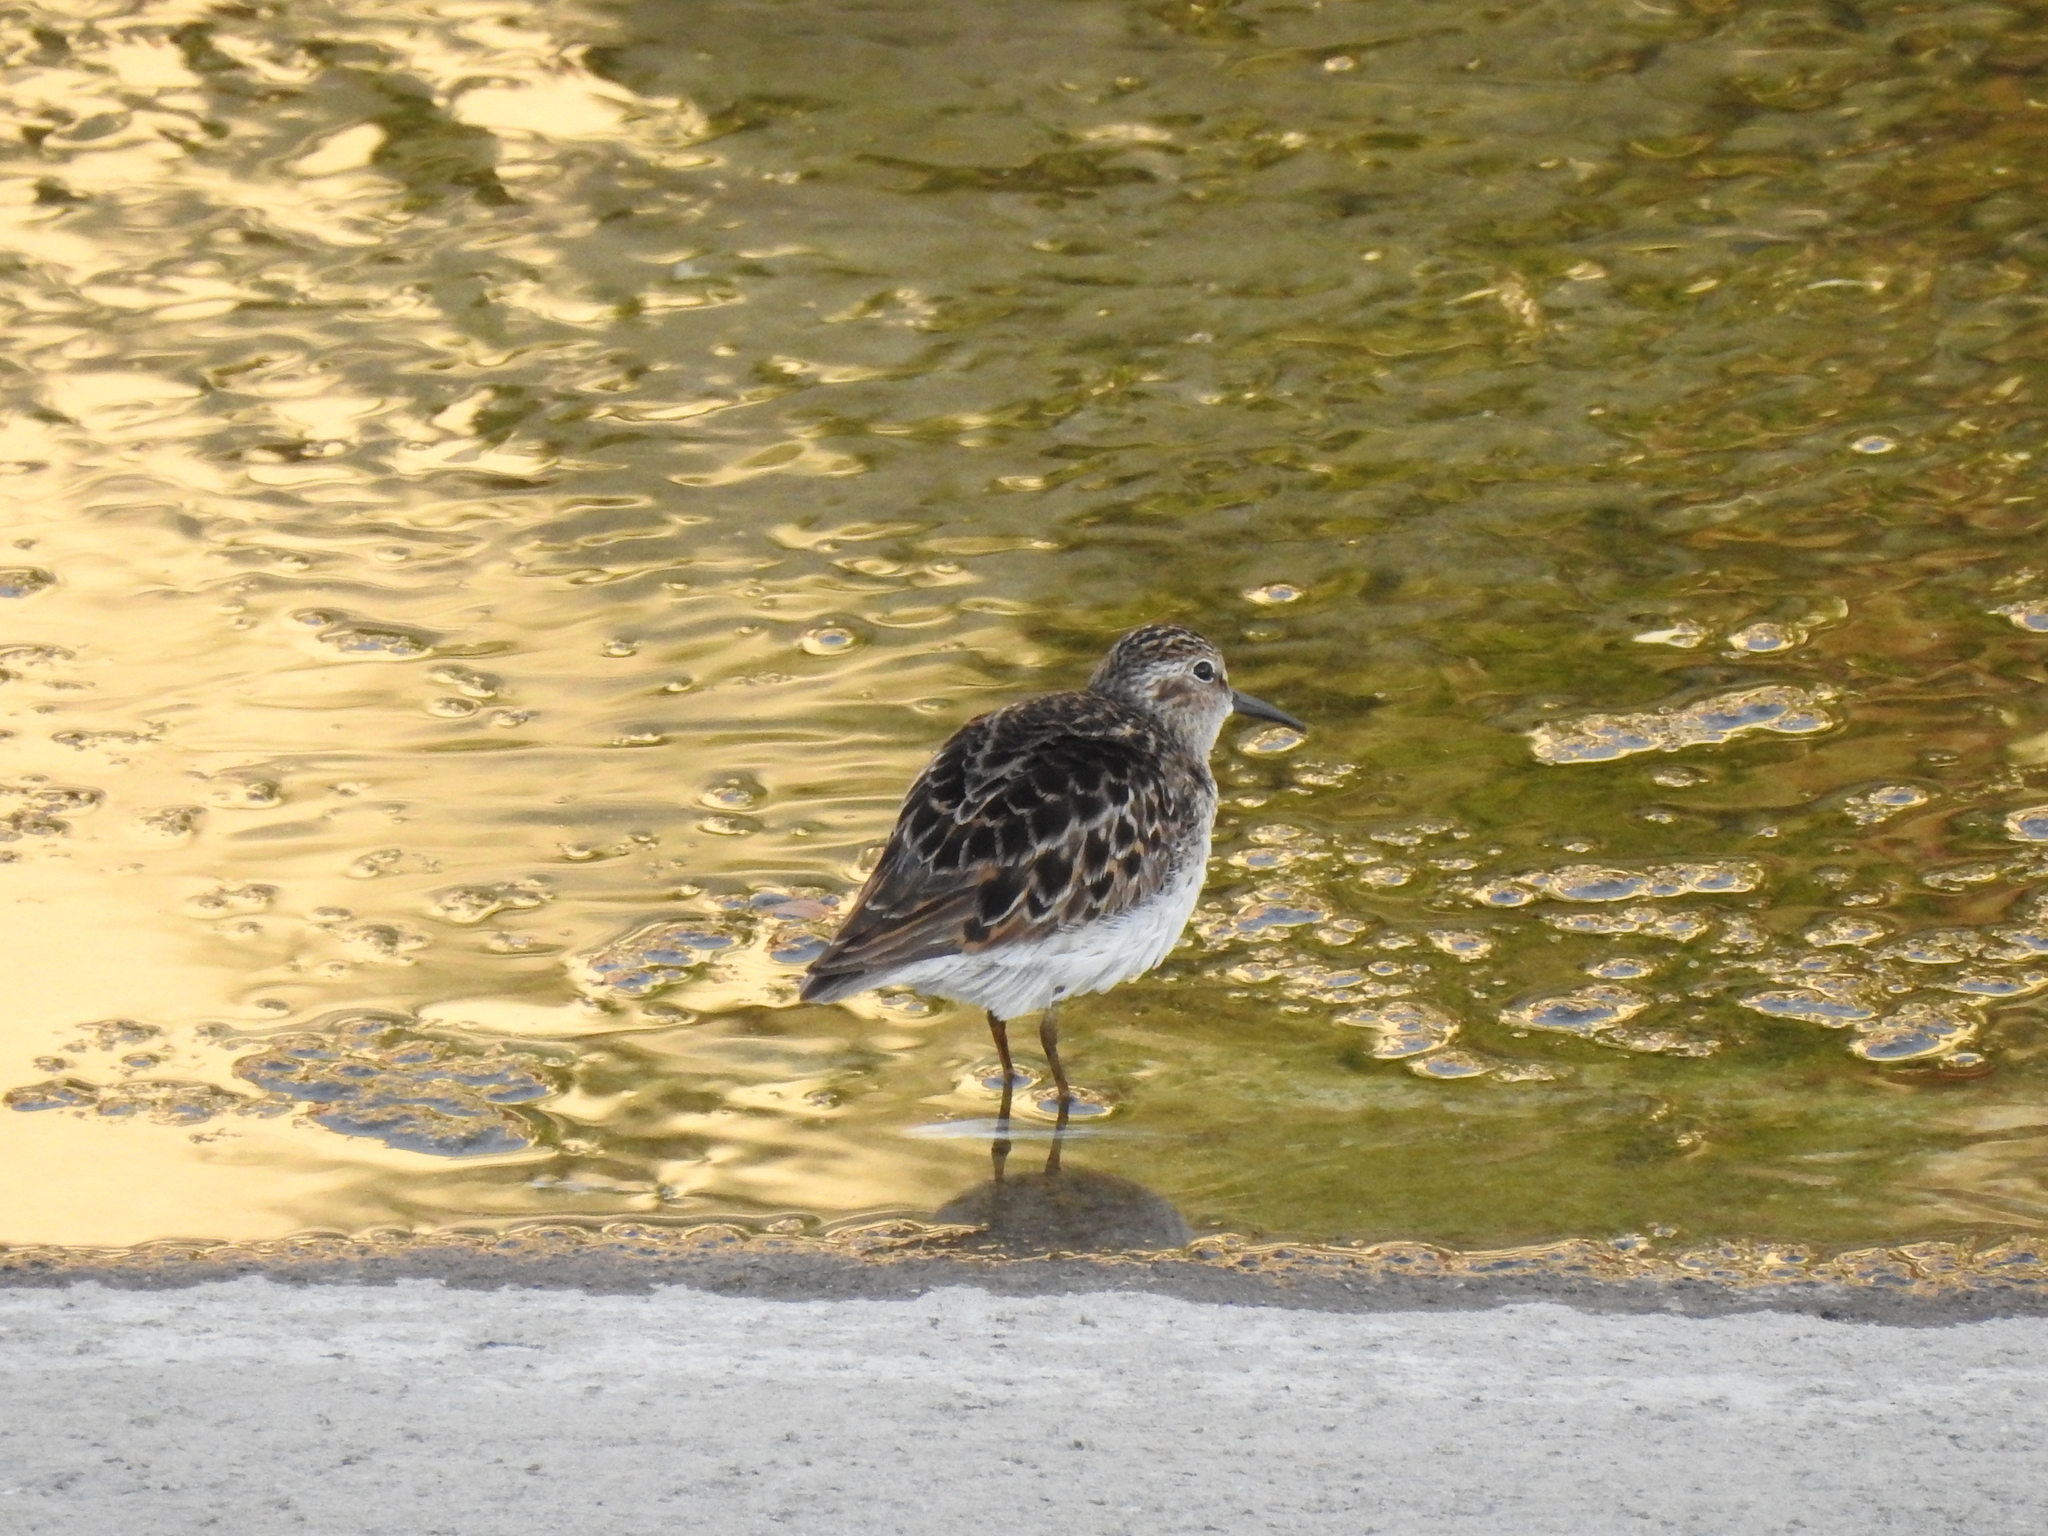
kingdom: Animalia
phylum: Chordata
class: Aves
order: Charadriiformes
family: Scolopacidae
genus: Calidris
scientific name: Calidris minutilla
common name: Least sandpiper
